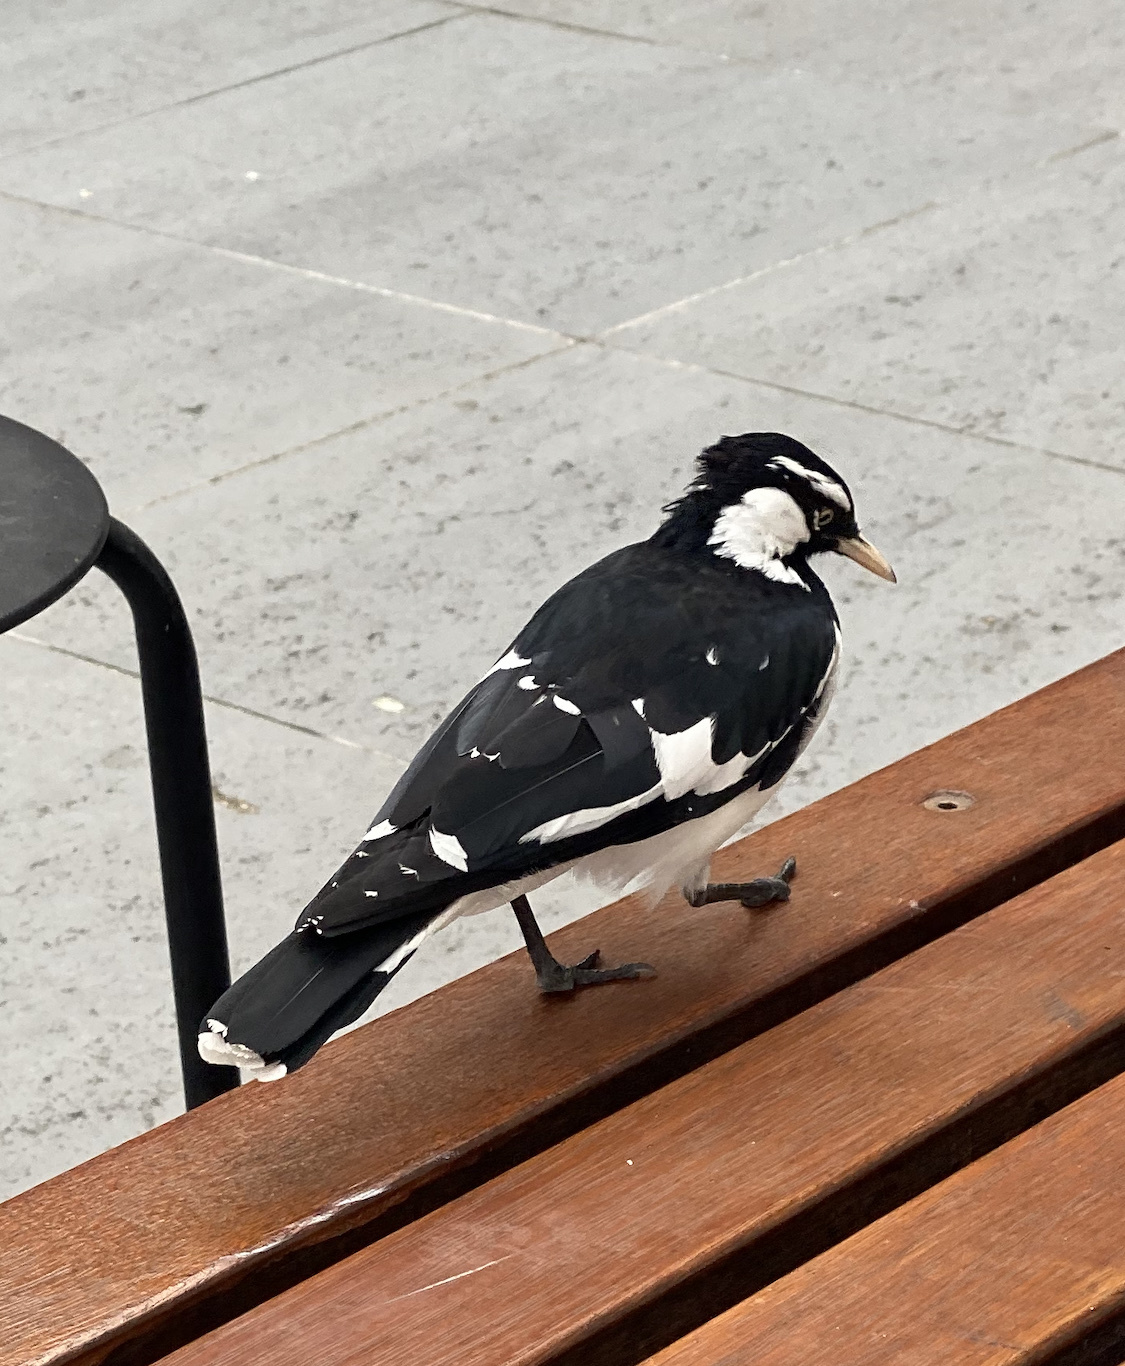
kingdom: Animalia
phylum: Chordata
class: Aves
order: Passeriformes
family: Monarchidae
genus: Grallina
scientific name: Grallina cyanoleuca
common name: Magpie-lark
